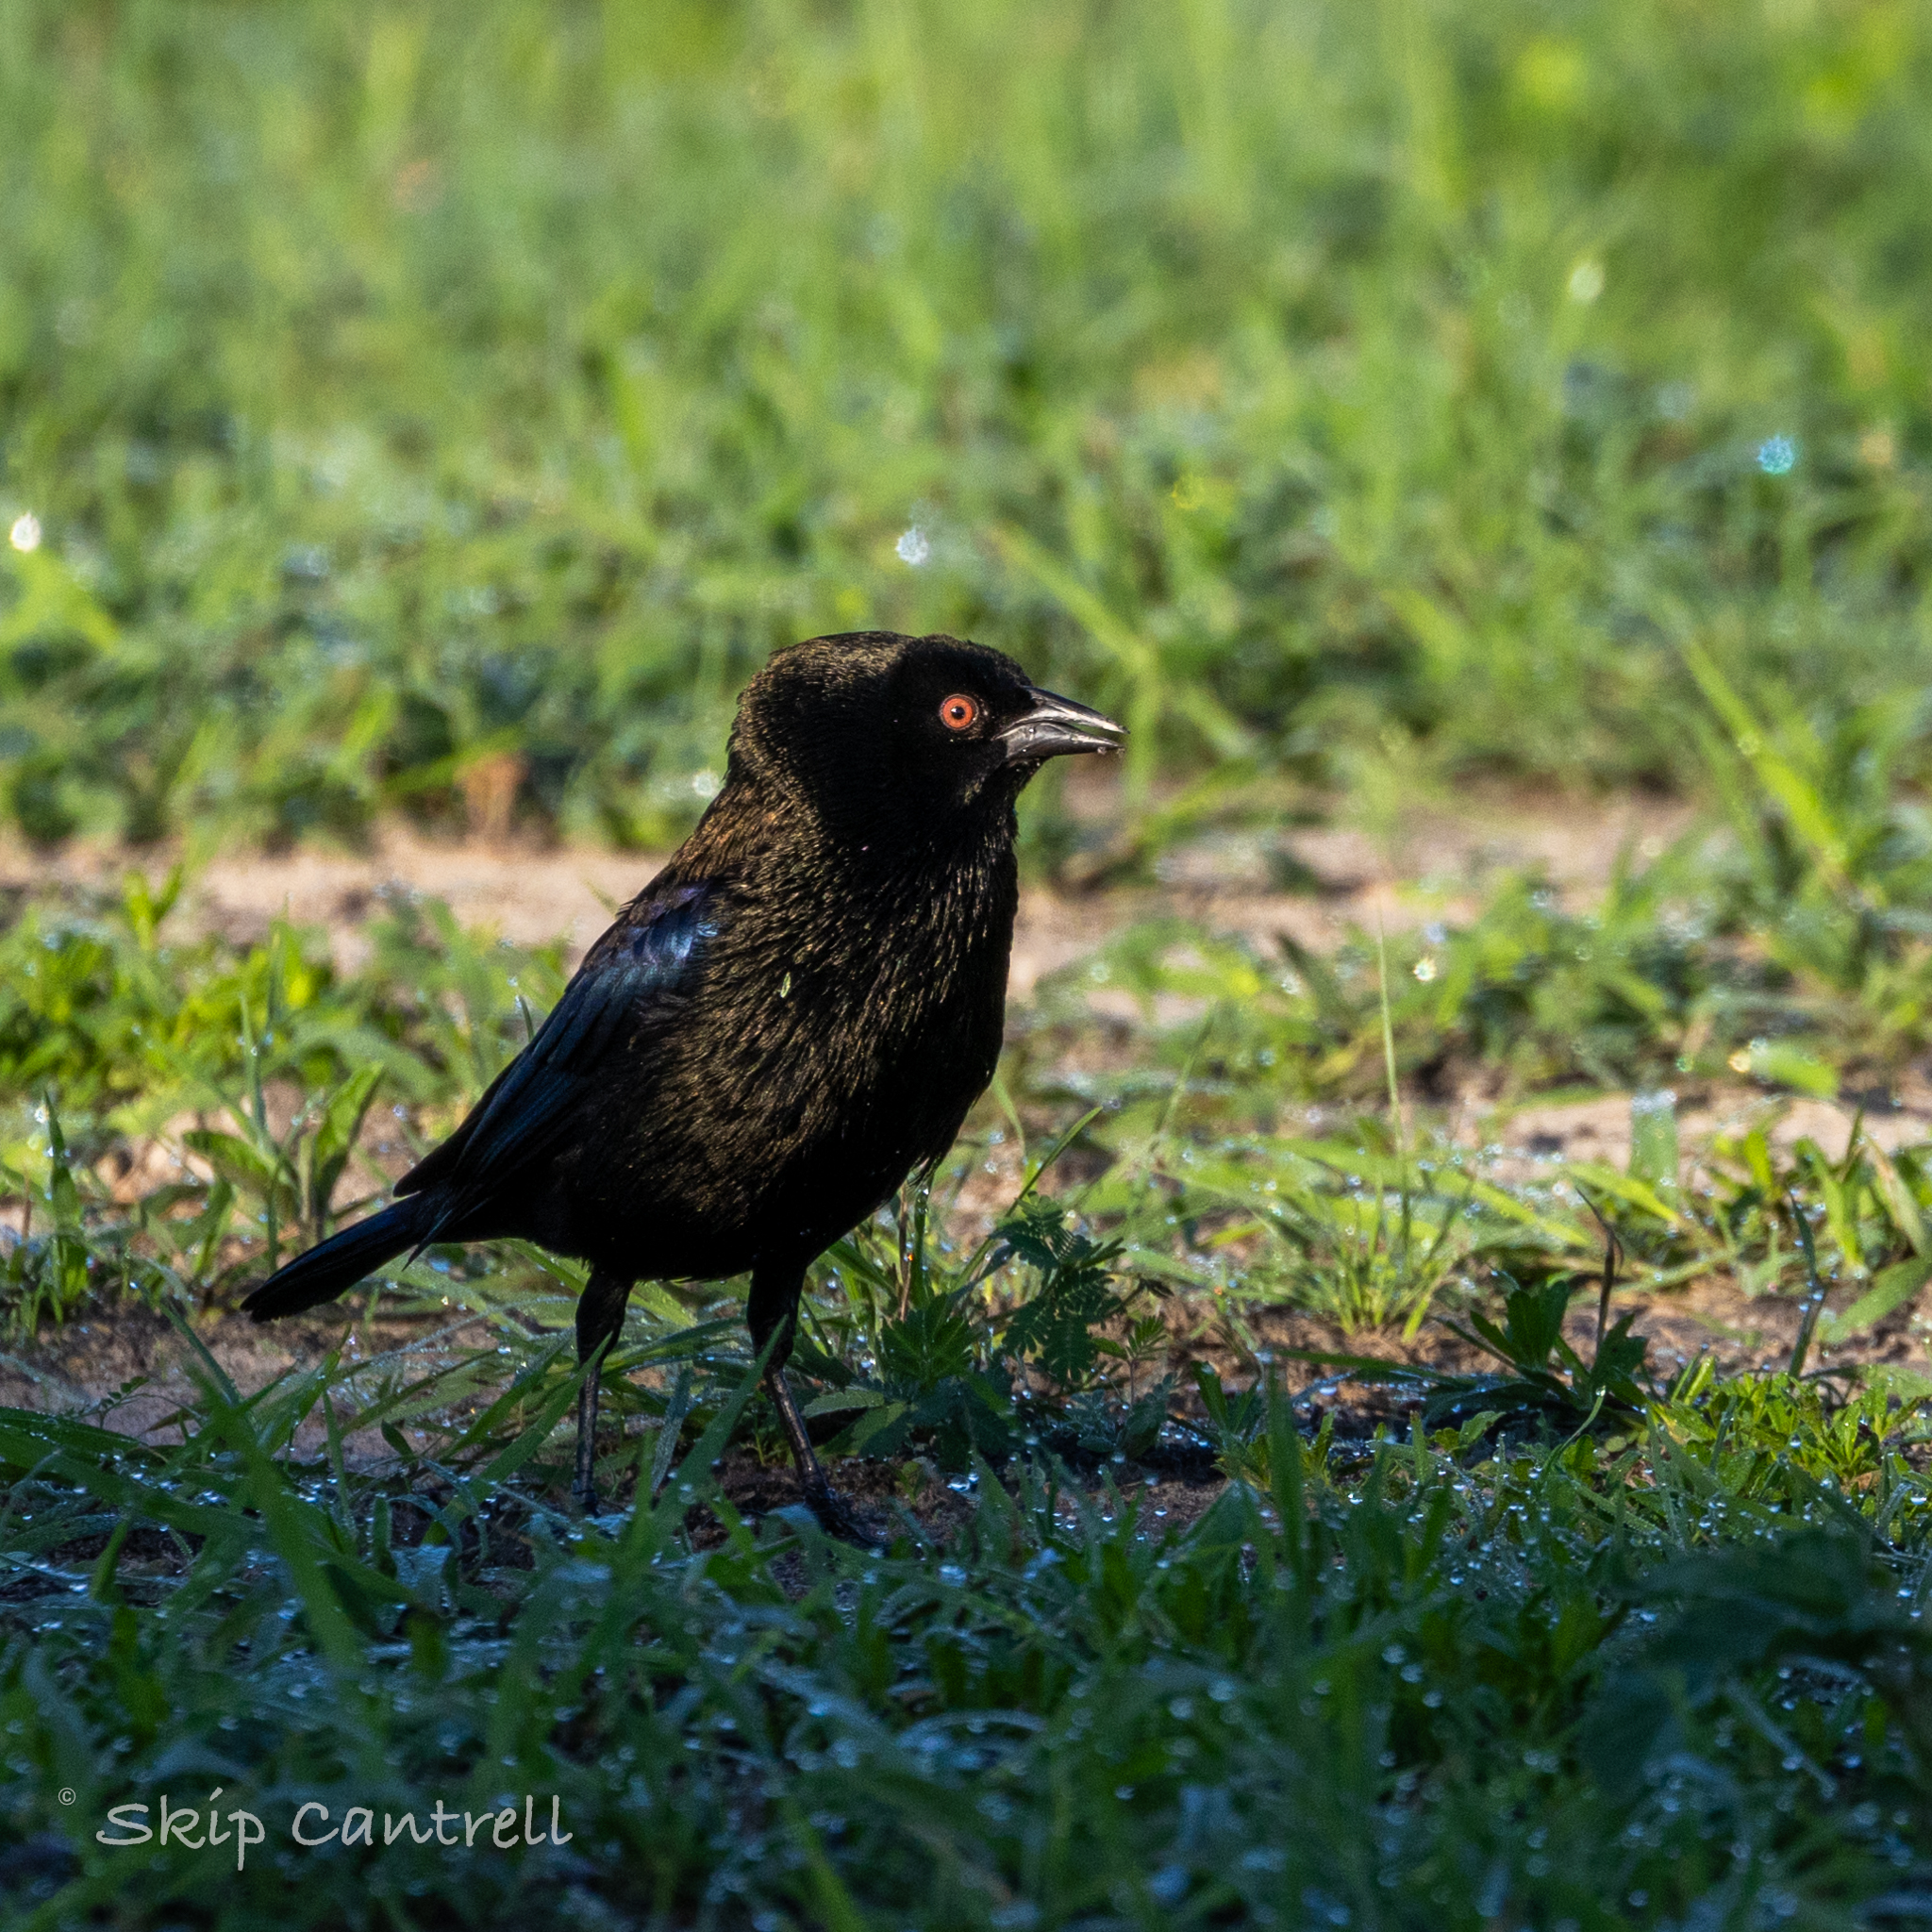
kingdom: Animalia
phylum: Chordata
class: Aves
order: Passeriformes
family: Icteridae
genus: Molothrus
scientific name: Molothrus aeneus
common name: Bronzed cowbird
